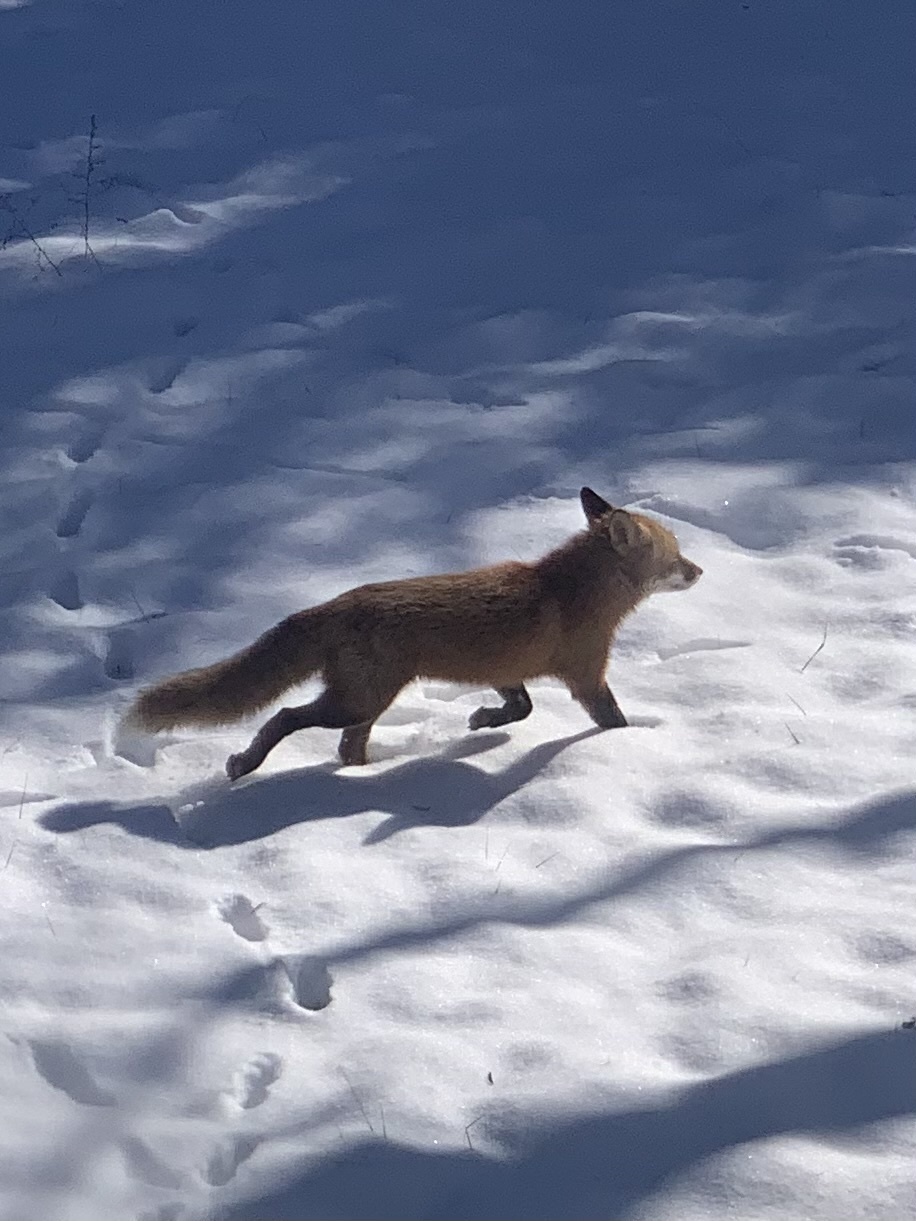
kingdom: Animalia
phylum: Chordata
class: Mammalia
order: Carnivora
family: Canidae
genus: Vulpes
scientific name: Vulpes vulpes
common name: Red fox
